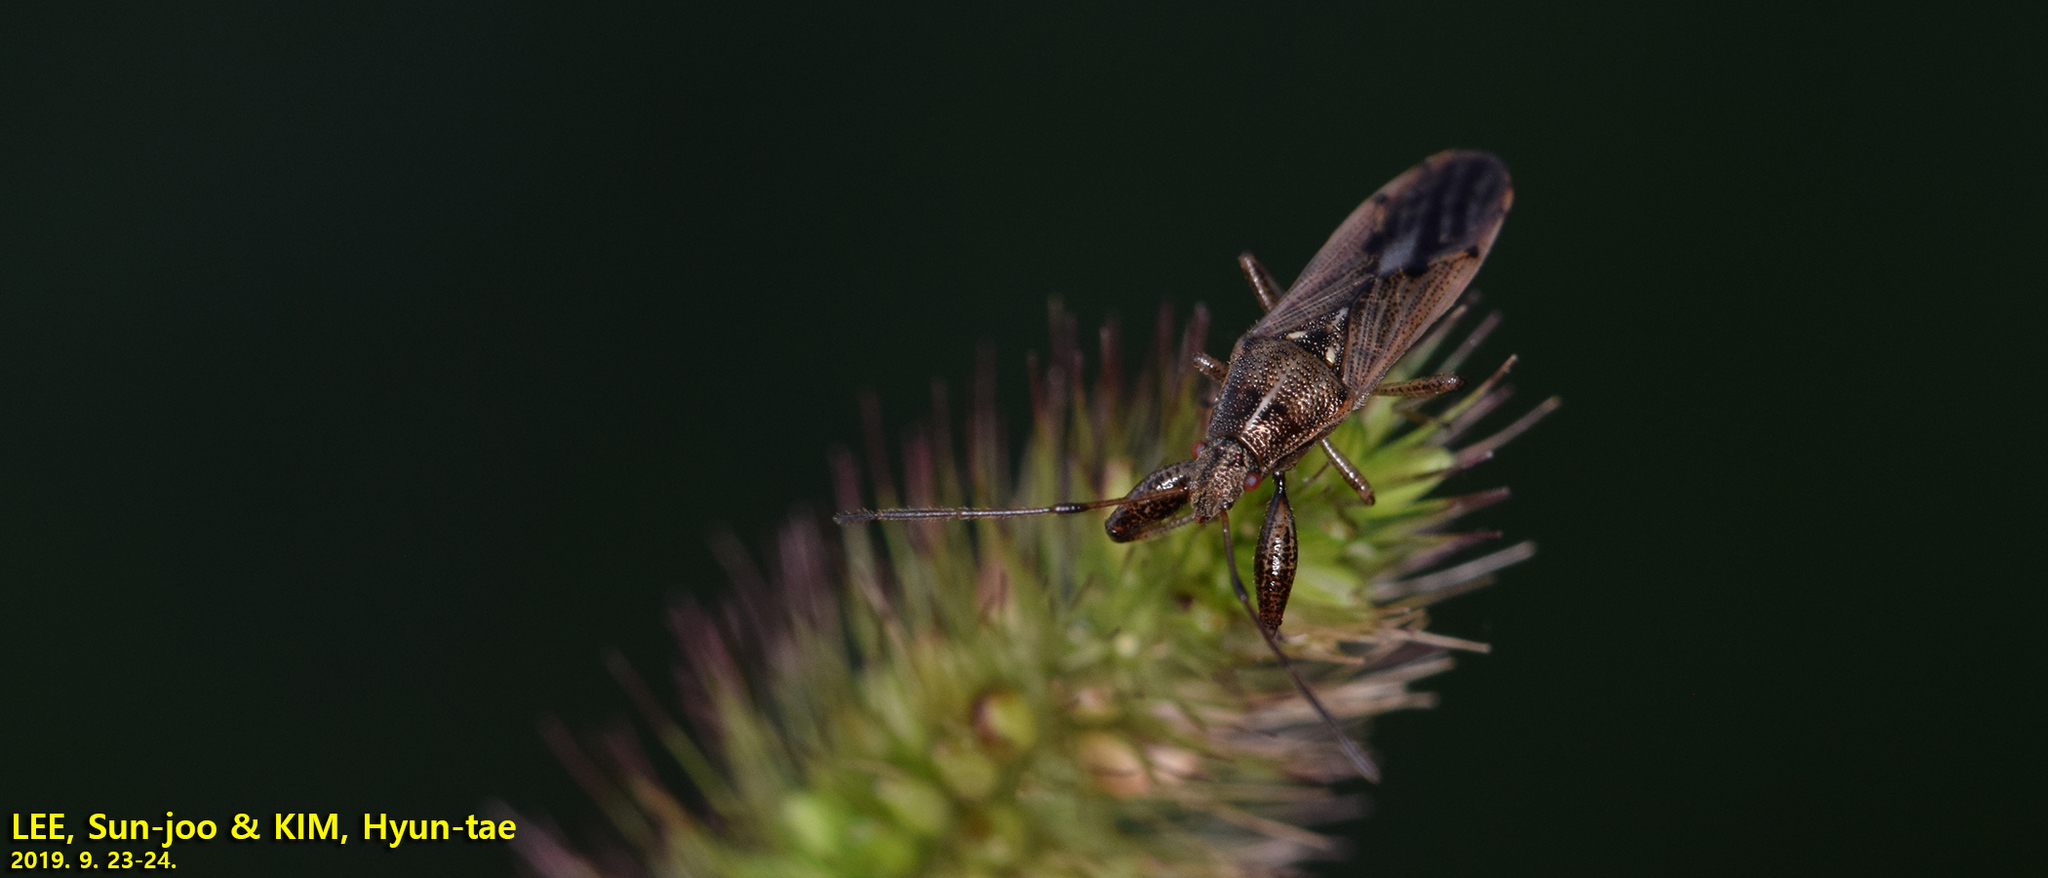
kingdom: Animalia
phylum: Arthropoda
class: Insecta
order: Hemiptera
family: Pachygronthidae
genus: Pachygrontha
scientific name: Pachygrontha antennata
